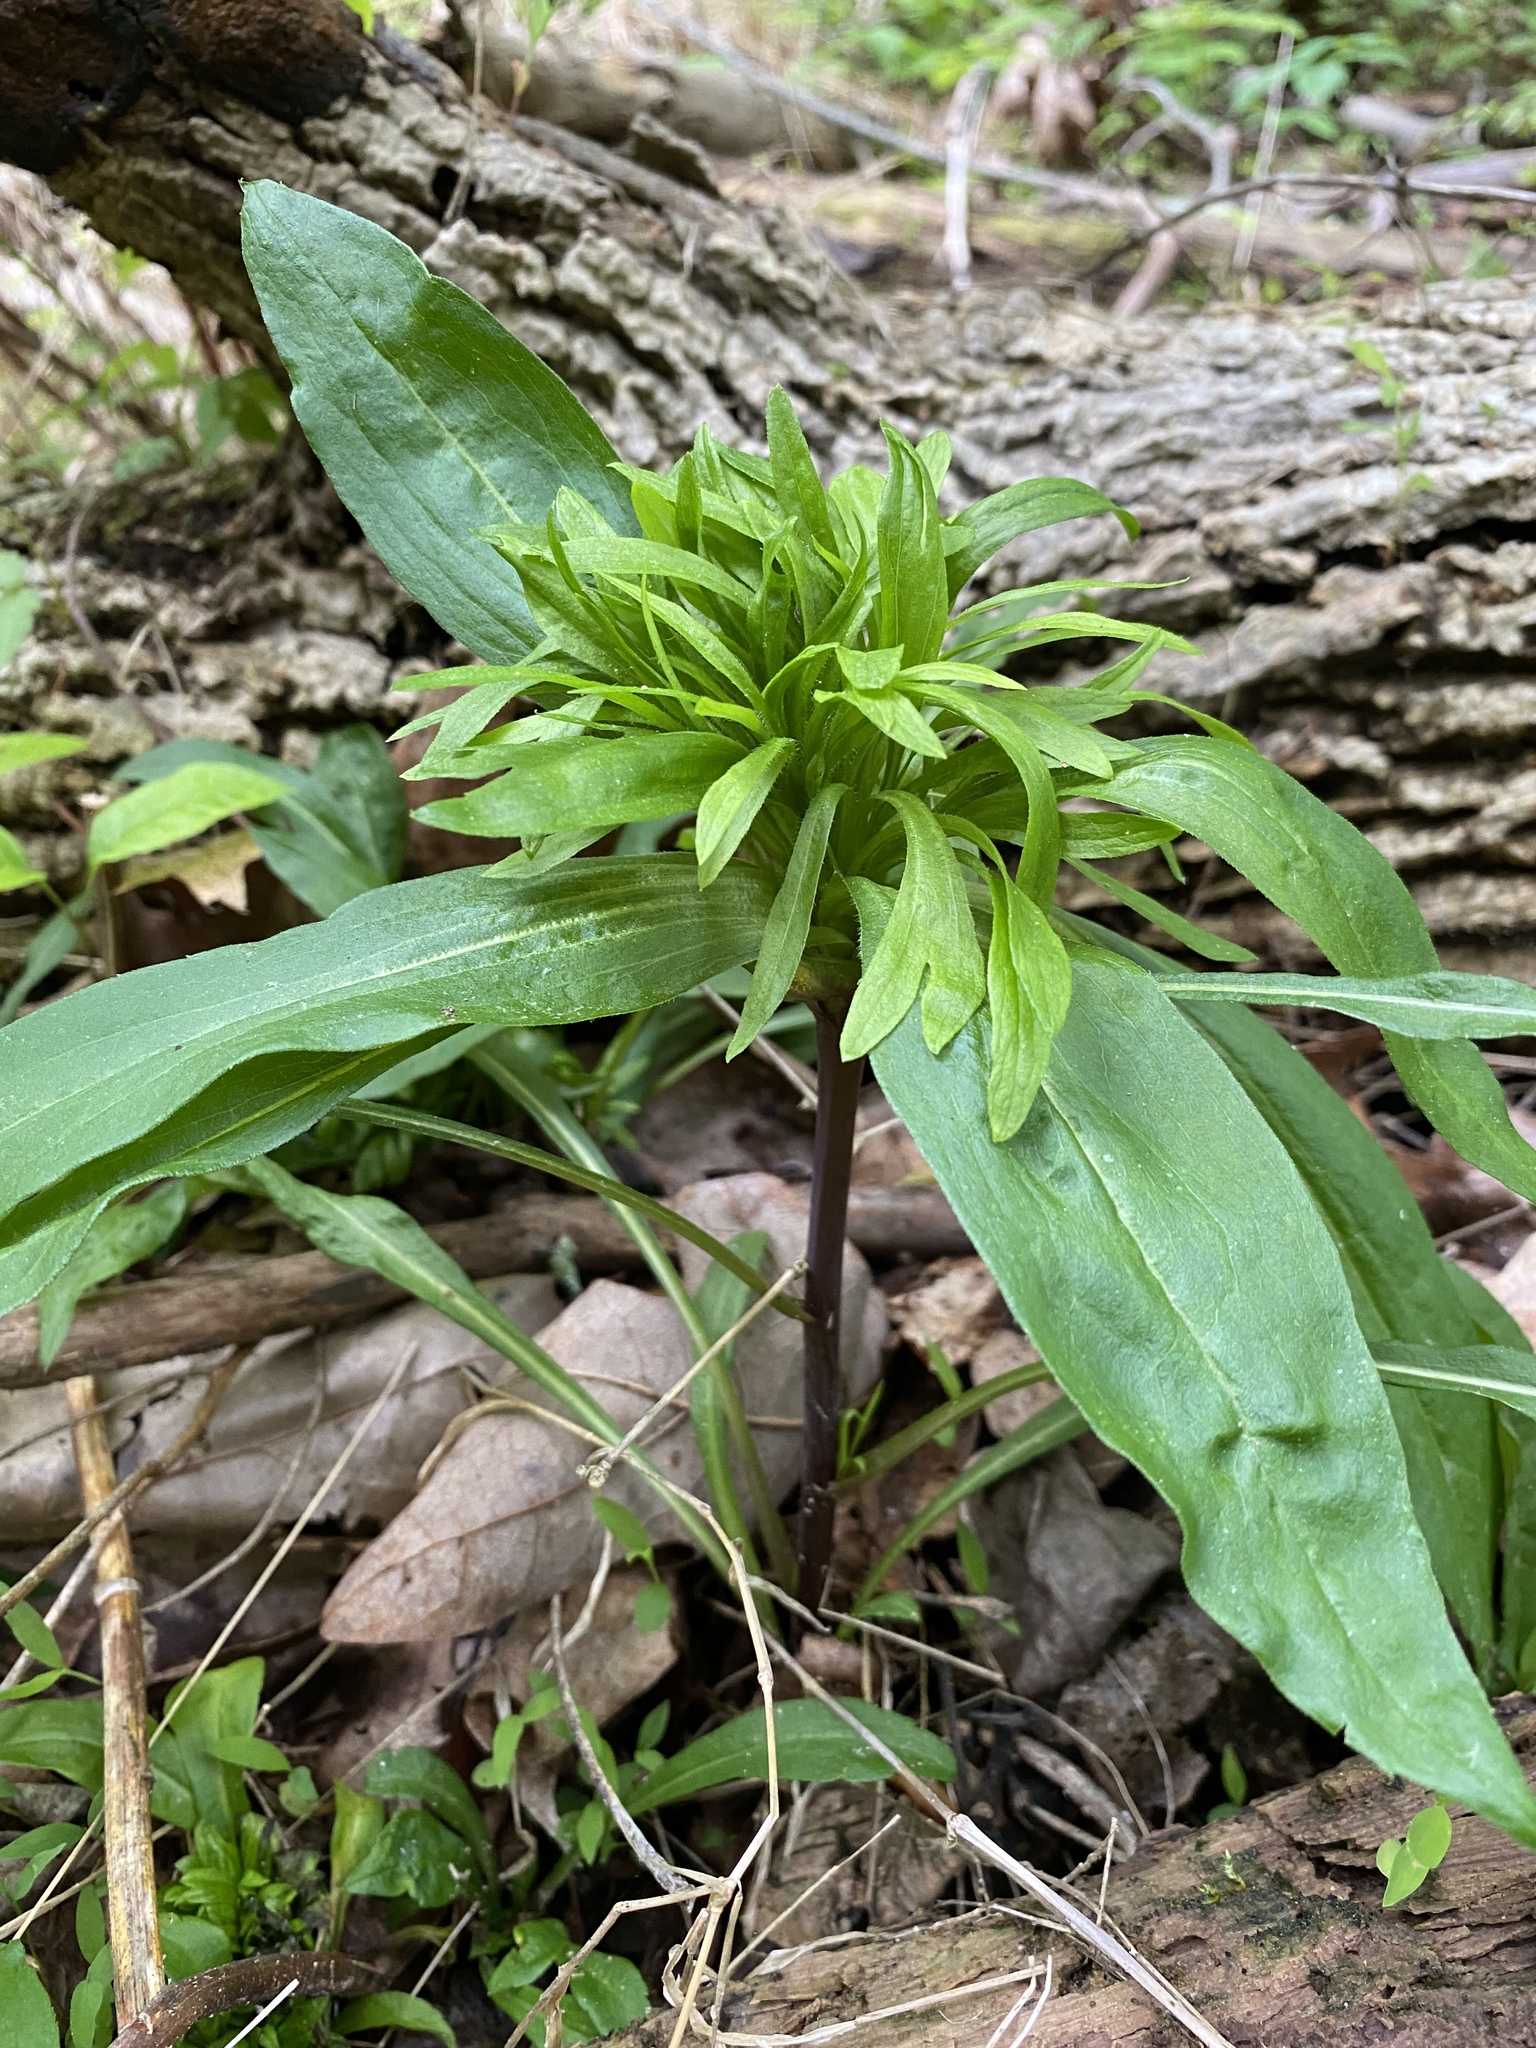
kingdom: Bacteria
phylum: Firmicutes
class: Bacilli
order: Acholeplasmatales
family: Acholeplasmataceae
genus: Phytoplasma
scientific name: Phytoplasma
